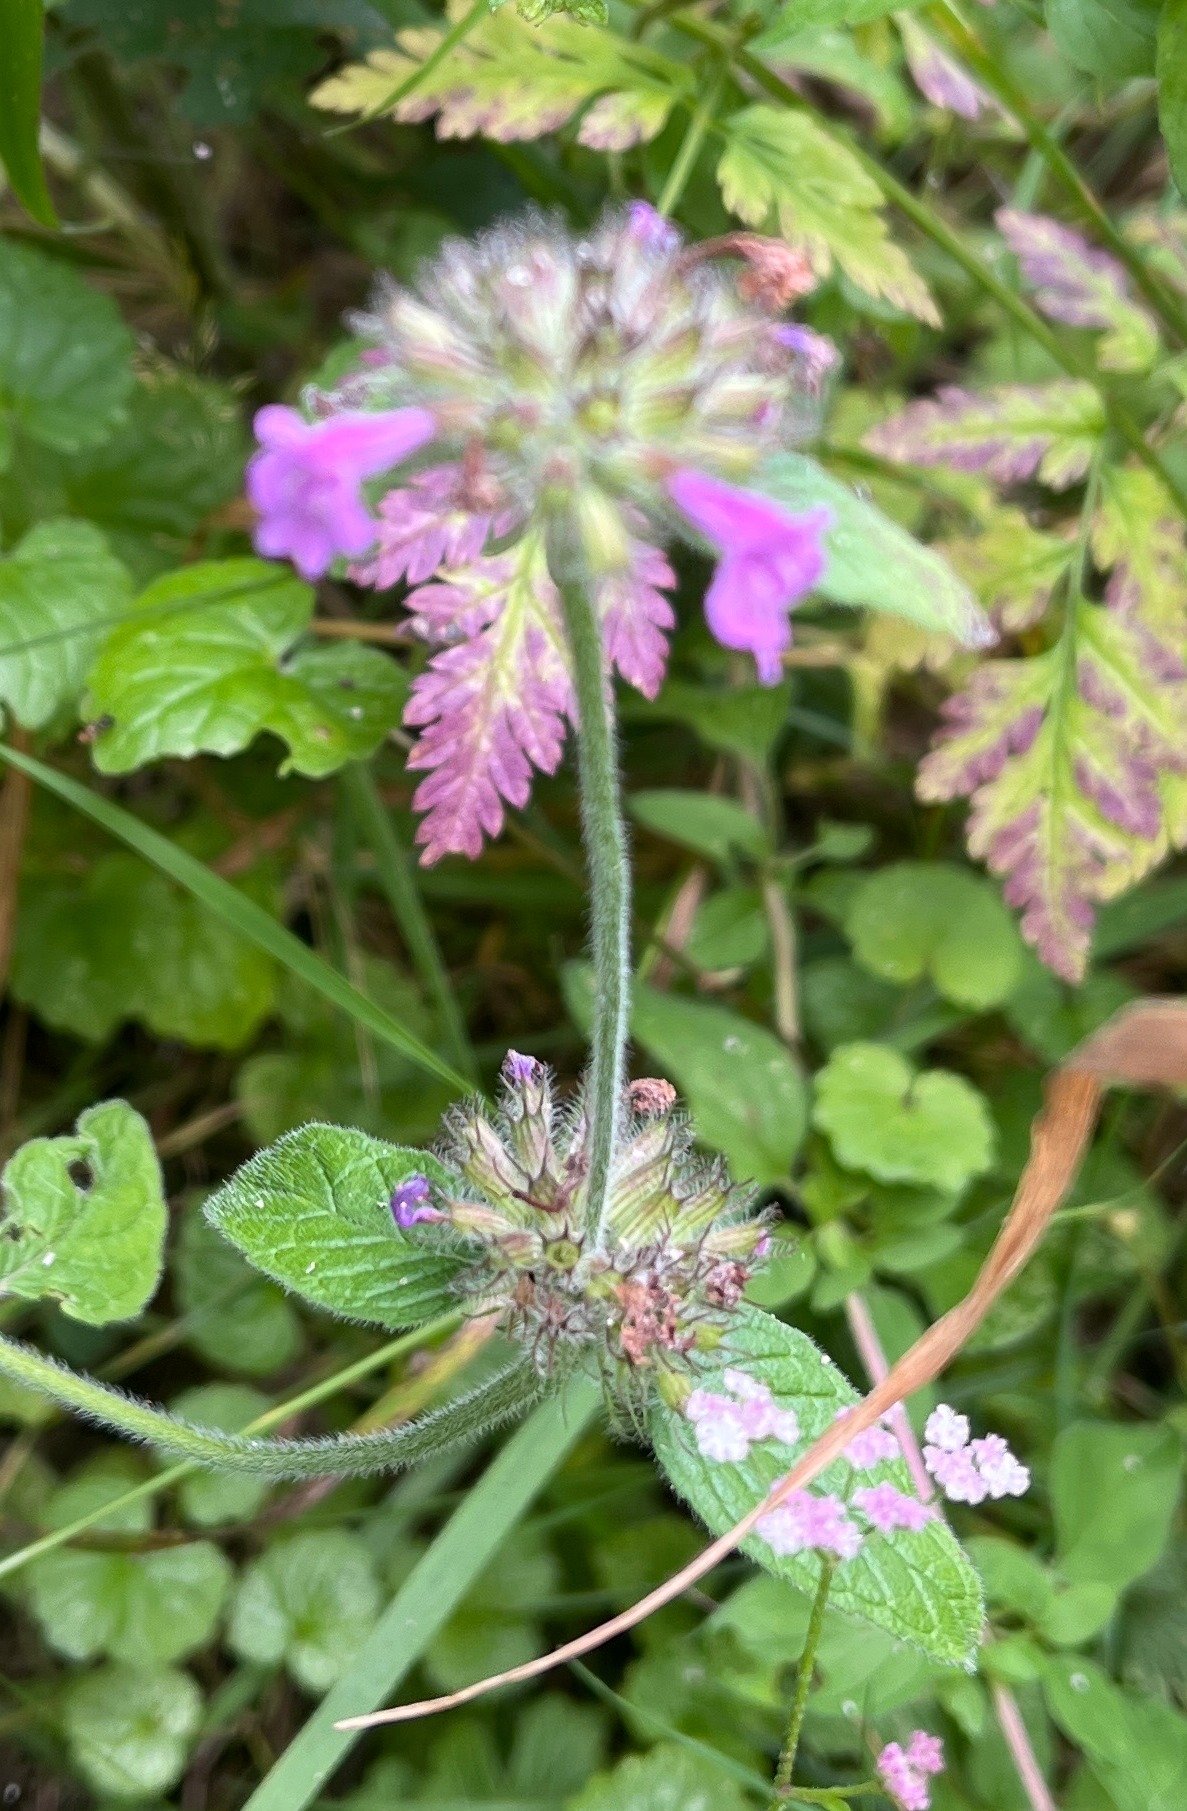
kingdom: Plantae
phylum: Tracheophyta
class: Magnoliopsida
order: Lamiales
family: Lamiaceae
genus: Clinopodium
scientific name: Clinopodium vulgare
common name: Wild basil
